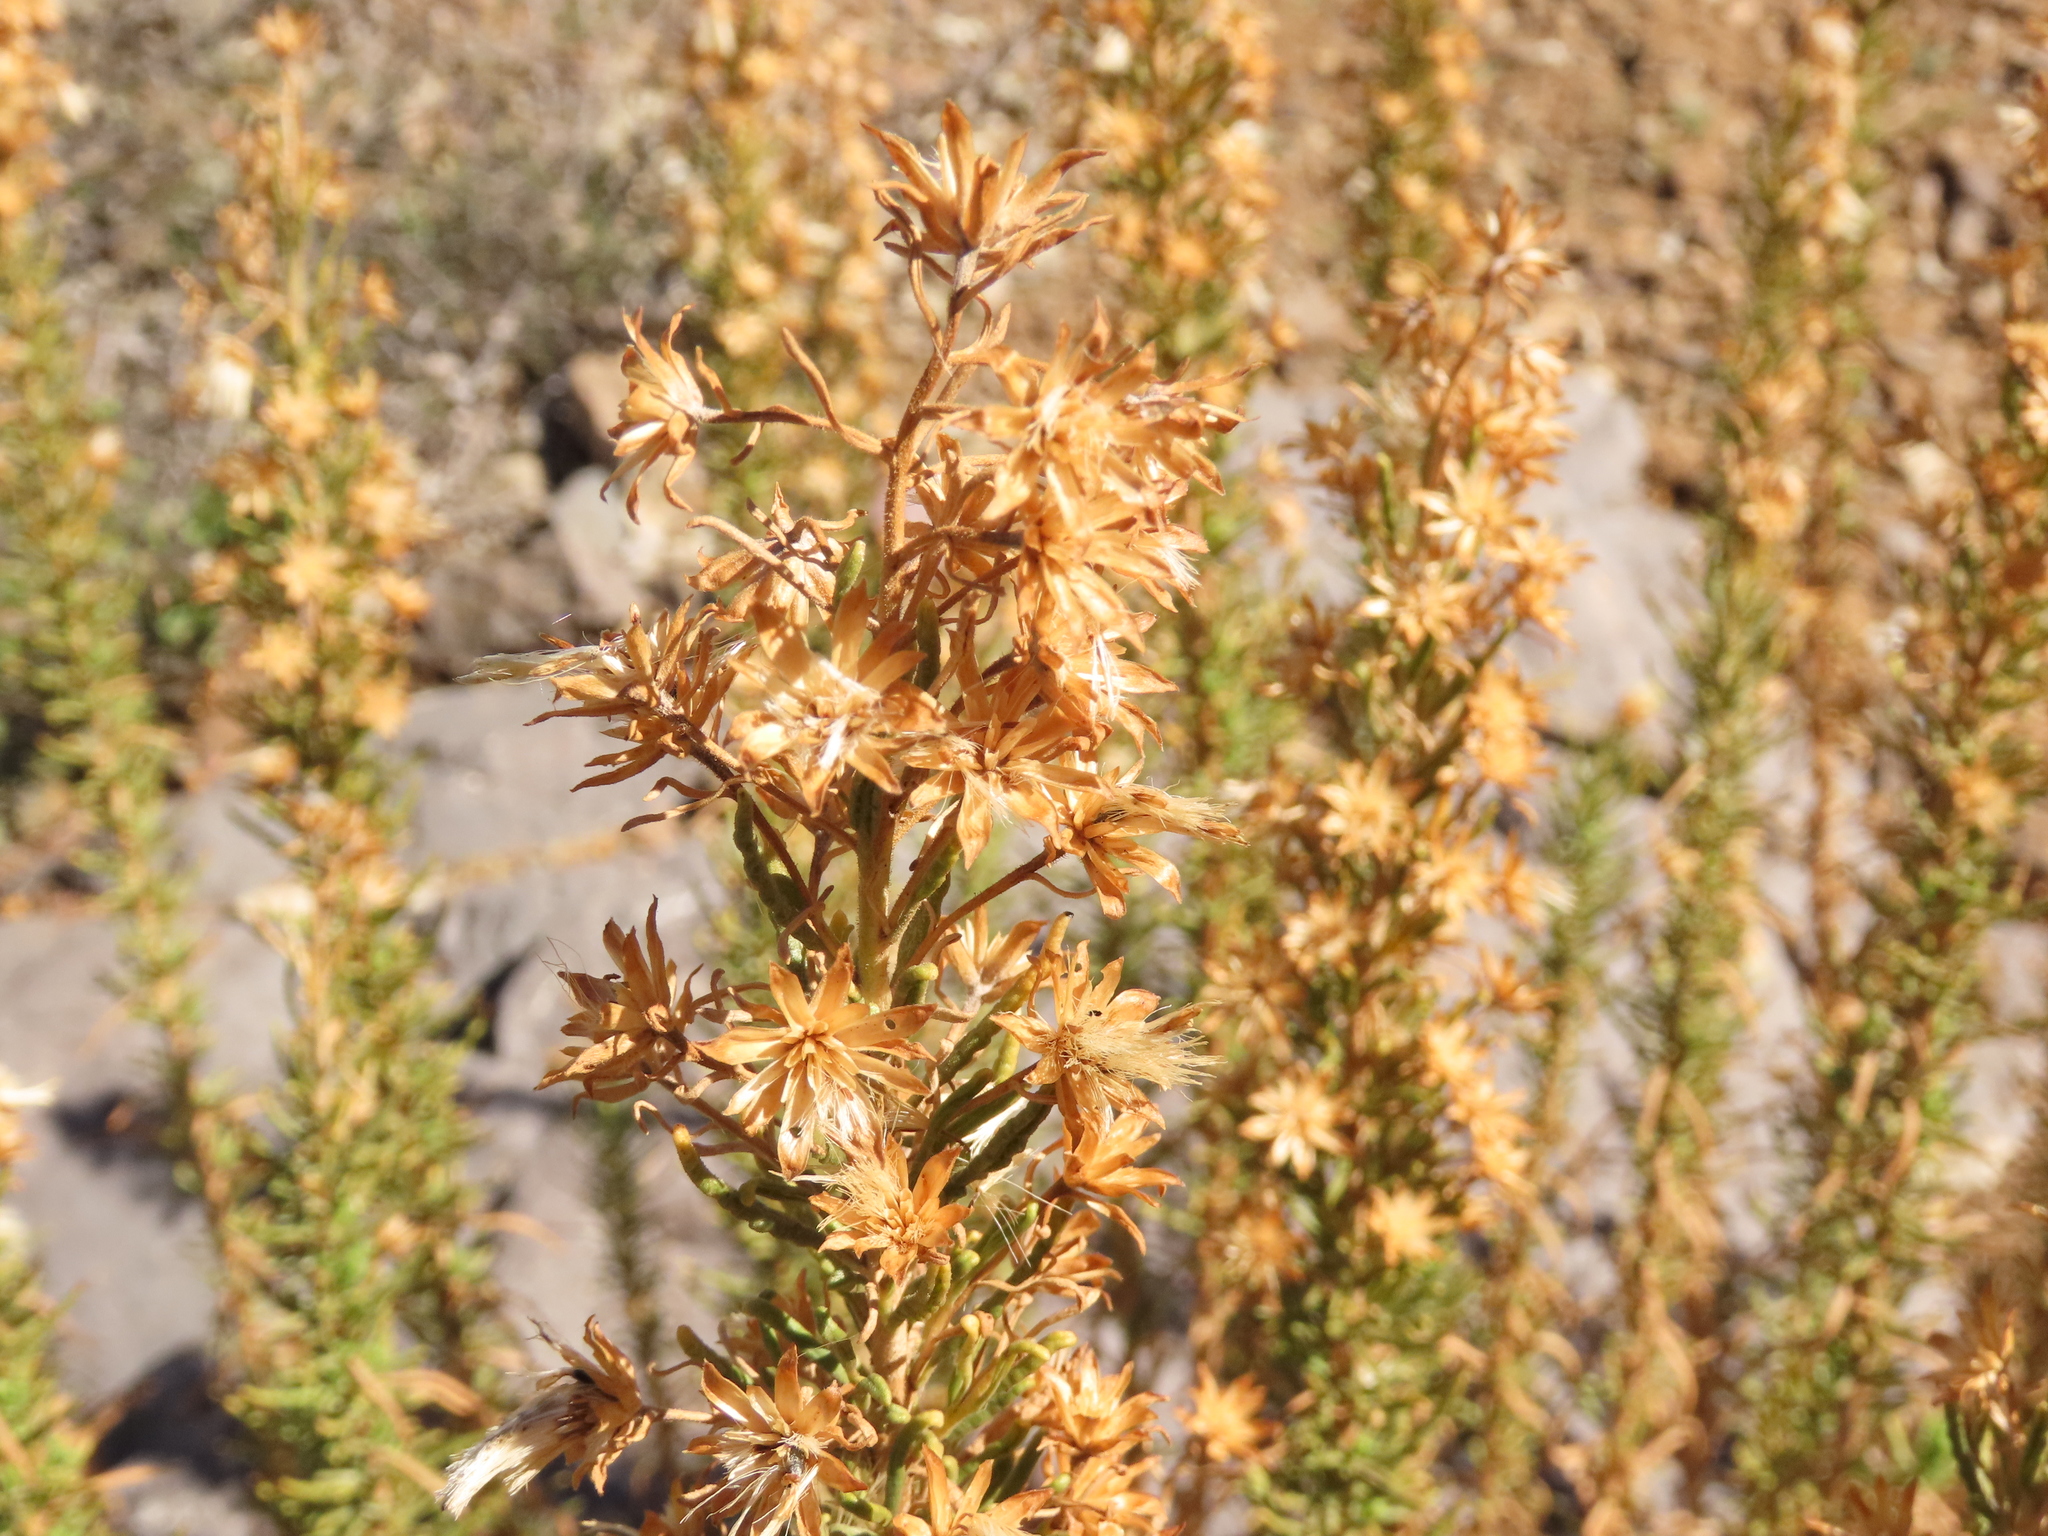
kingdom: Plantae
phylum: Tracheophyta
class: Magnoliopsida
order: Asterales
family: Asteraceae
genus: Jungia
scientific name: Jungia revoluta
